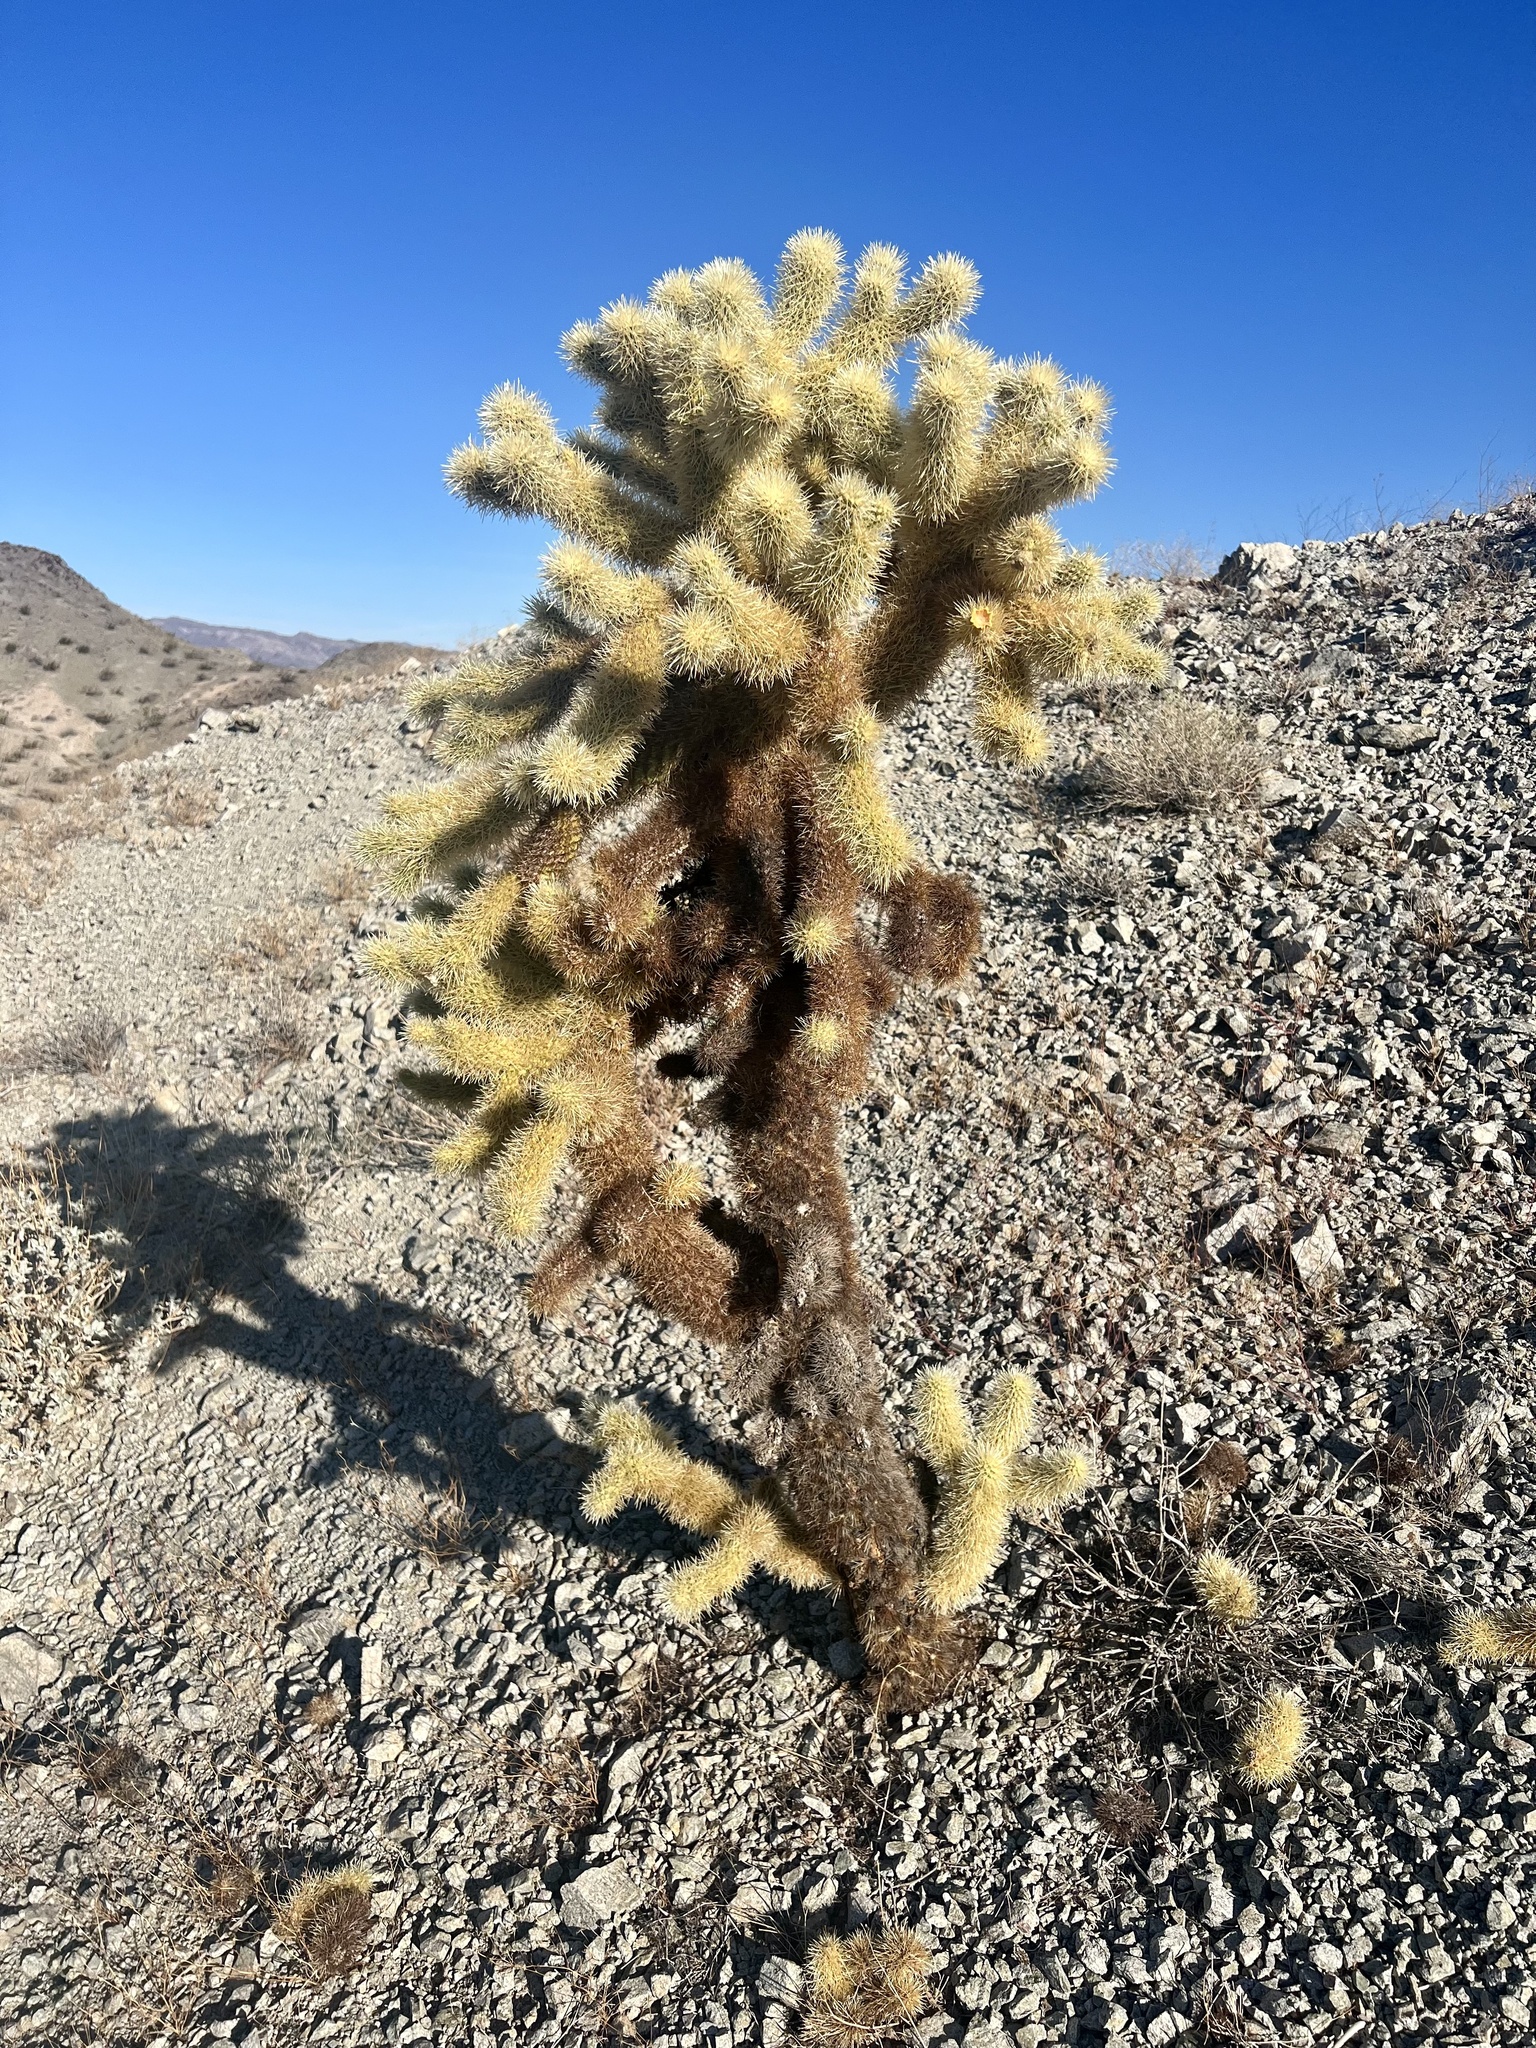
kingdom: Plantae
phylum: Tracheophyta
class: Magnoliopsida
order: Caryophyllales
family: Cactaceae
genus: Cylindropuntia
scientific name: Cylindropuntia fosbergii
